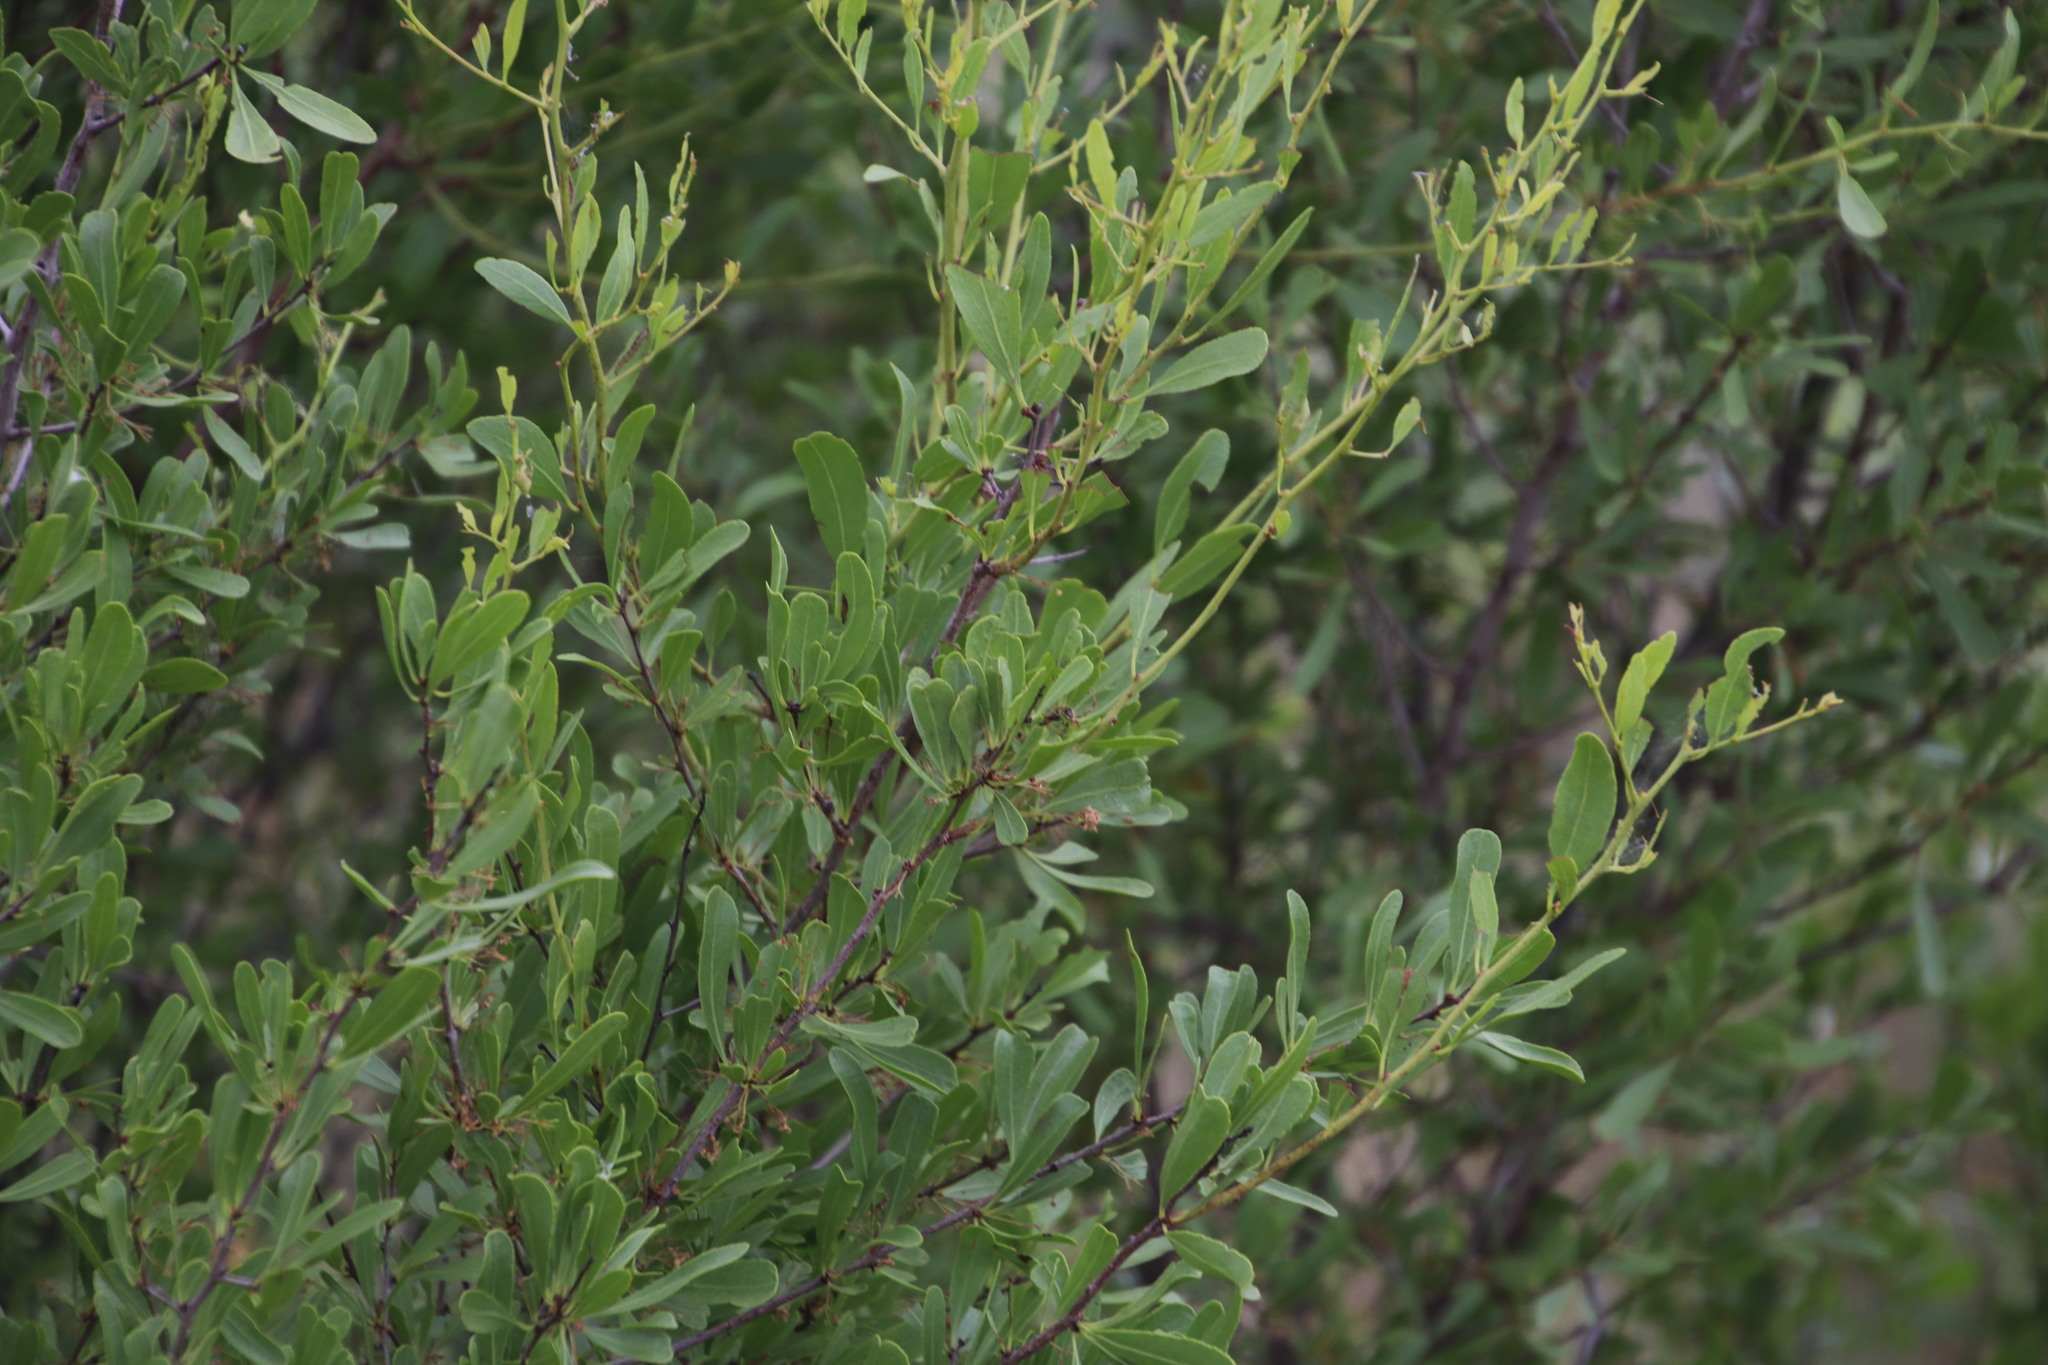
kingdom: Plantae
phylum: Tracheophyta
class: Magnoliopsida
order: Celastrales
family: Celastraceae
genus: Gymnosporia
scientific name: Gymnosporia tenuispina
